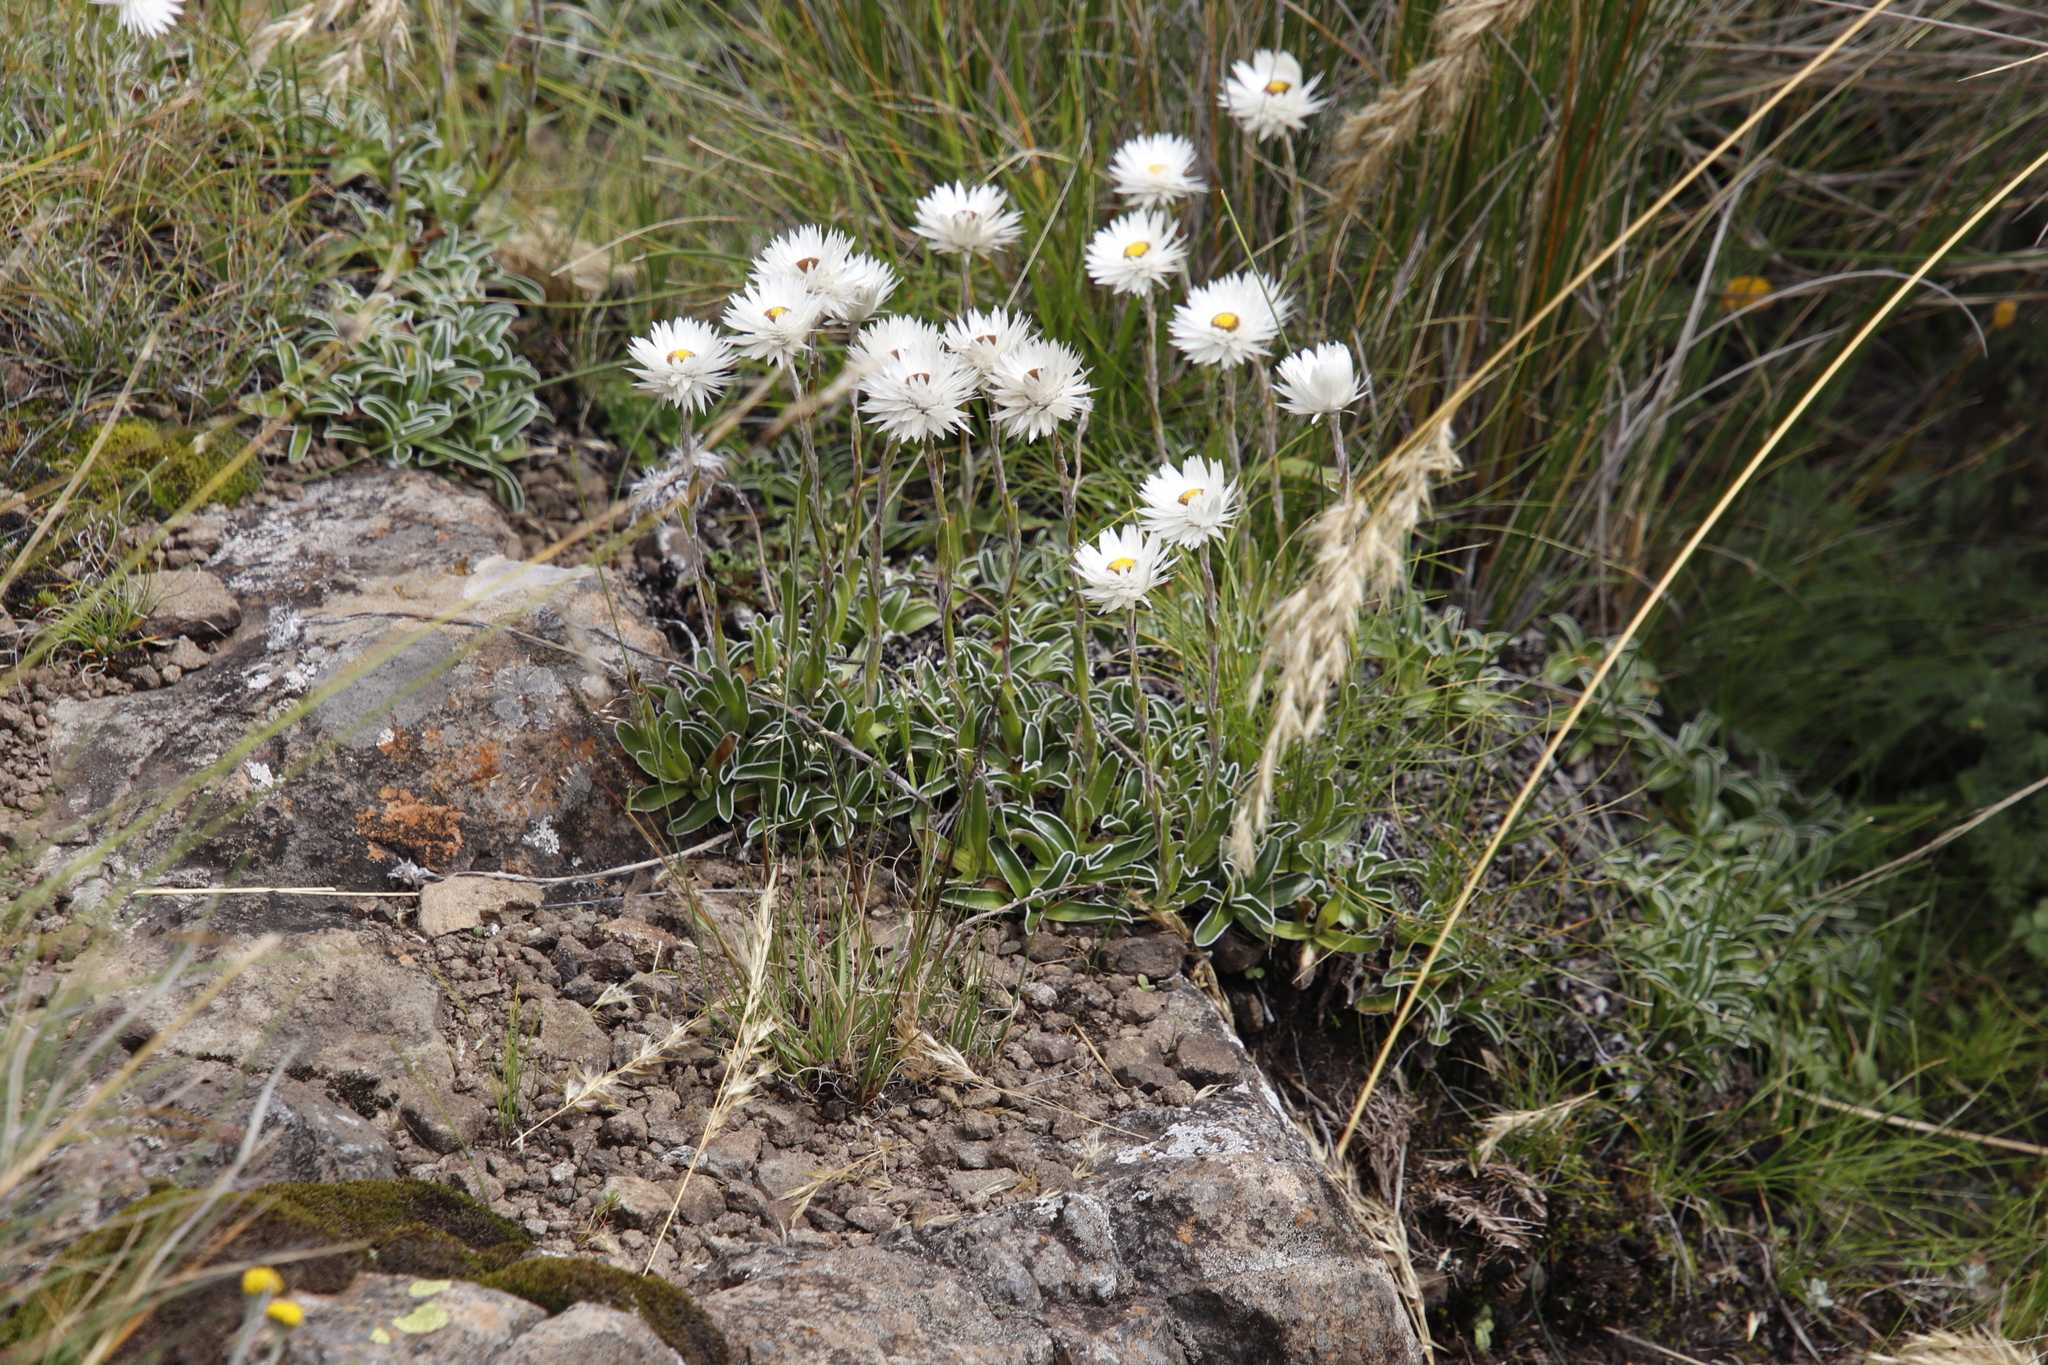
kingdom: Plantae
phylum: Tracheophyta
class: Magnoliopsida
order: Asterales
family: Asteraceae
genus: Helichrysum
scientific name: Helichrysum marginatum
